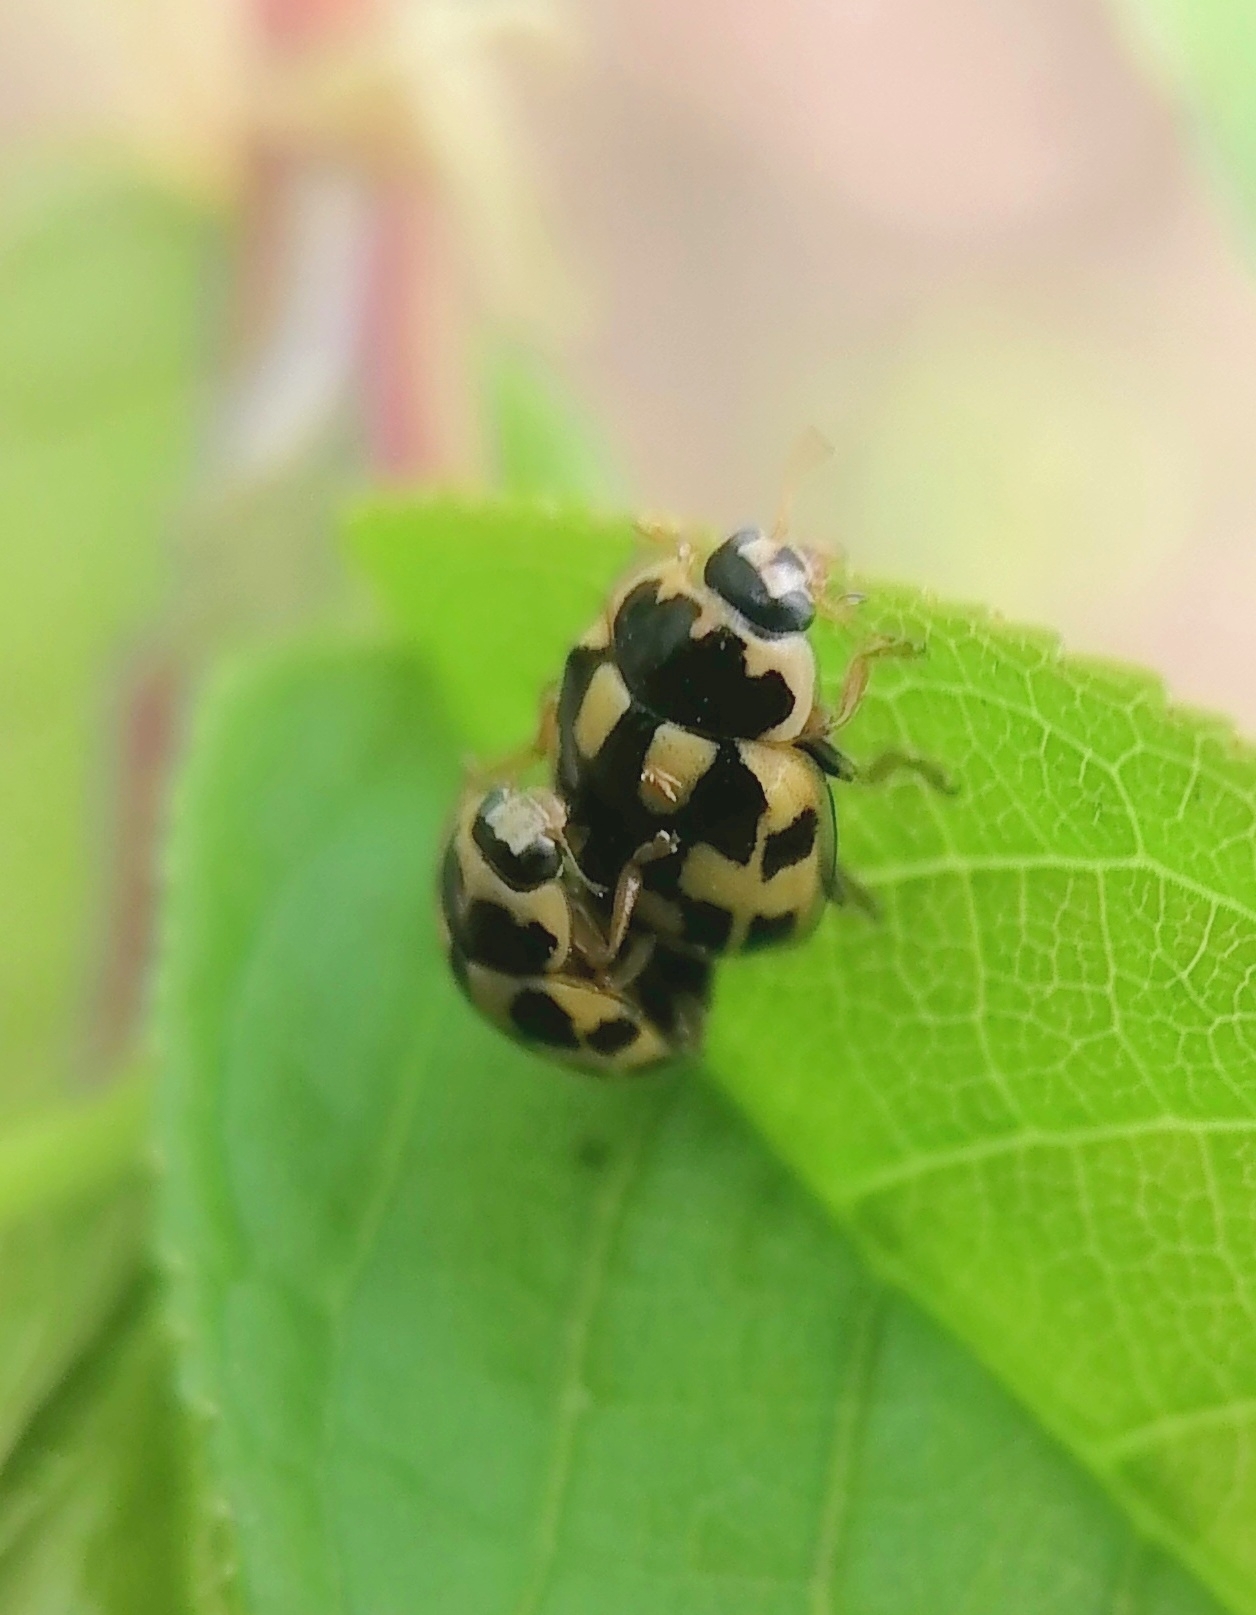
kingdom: Animalia
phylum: Arthropoda
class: Insecta
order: Coleoptera
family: Coccinellidae
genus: Propylaea
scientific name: Propylaea quatuordecimpunctata
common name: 14-spotted ladybird beetle
